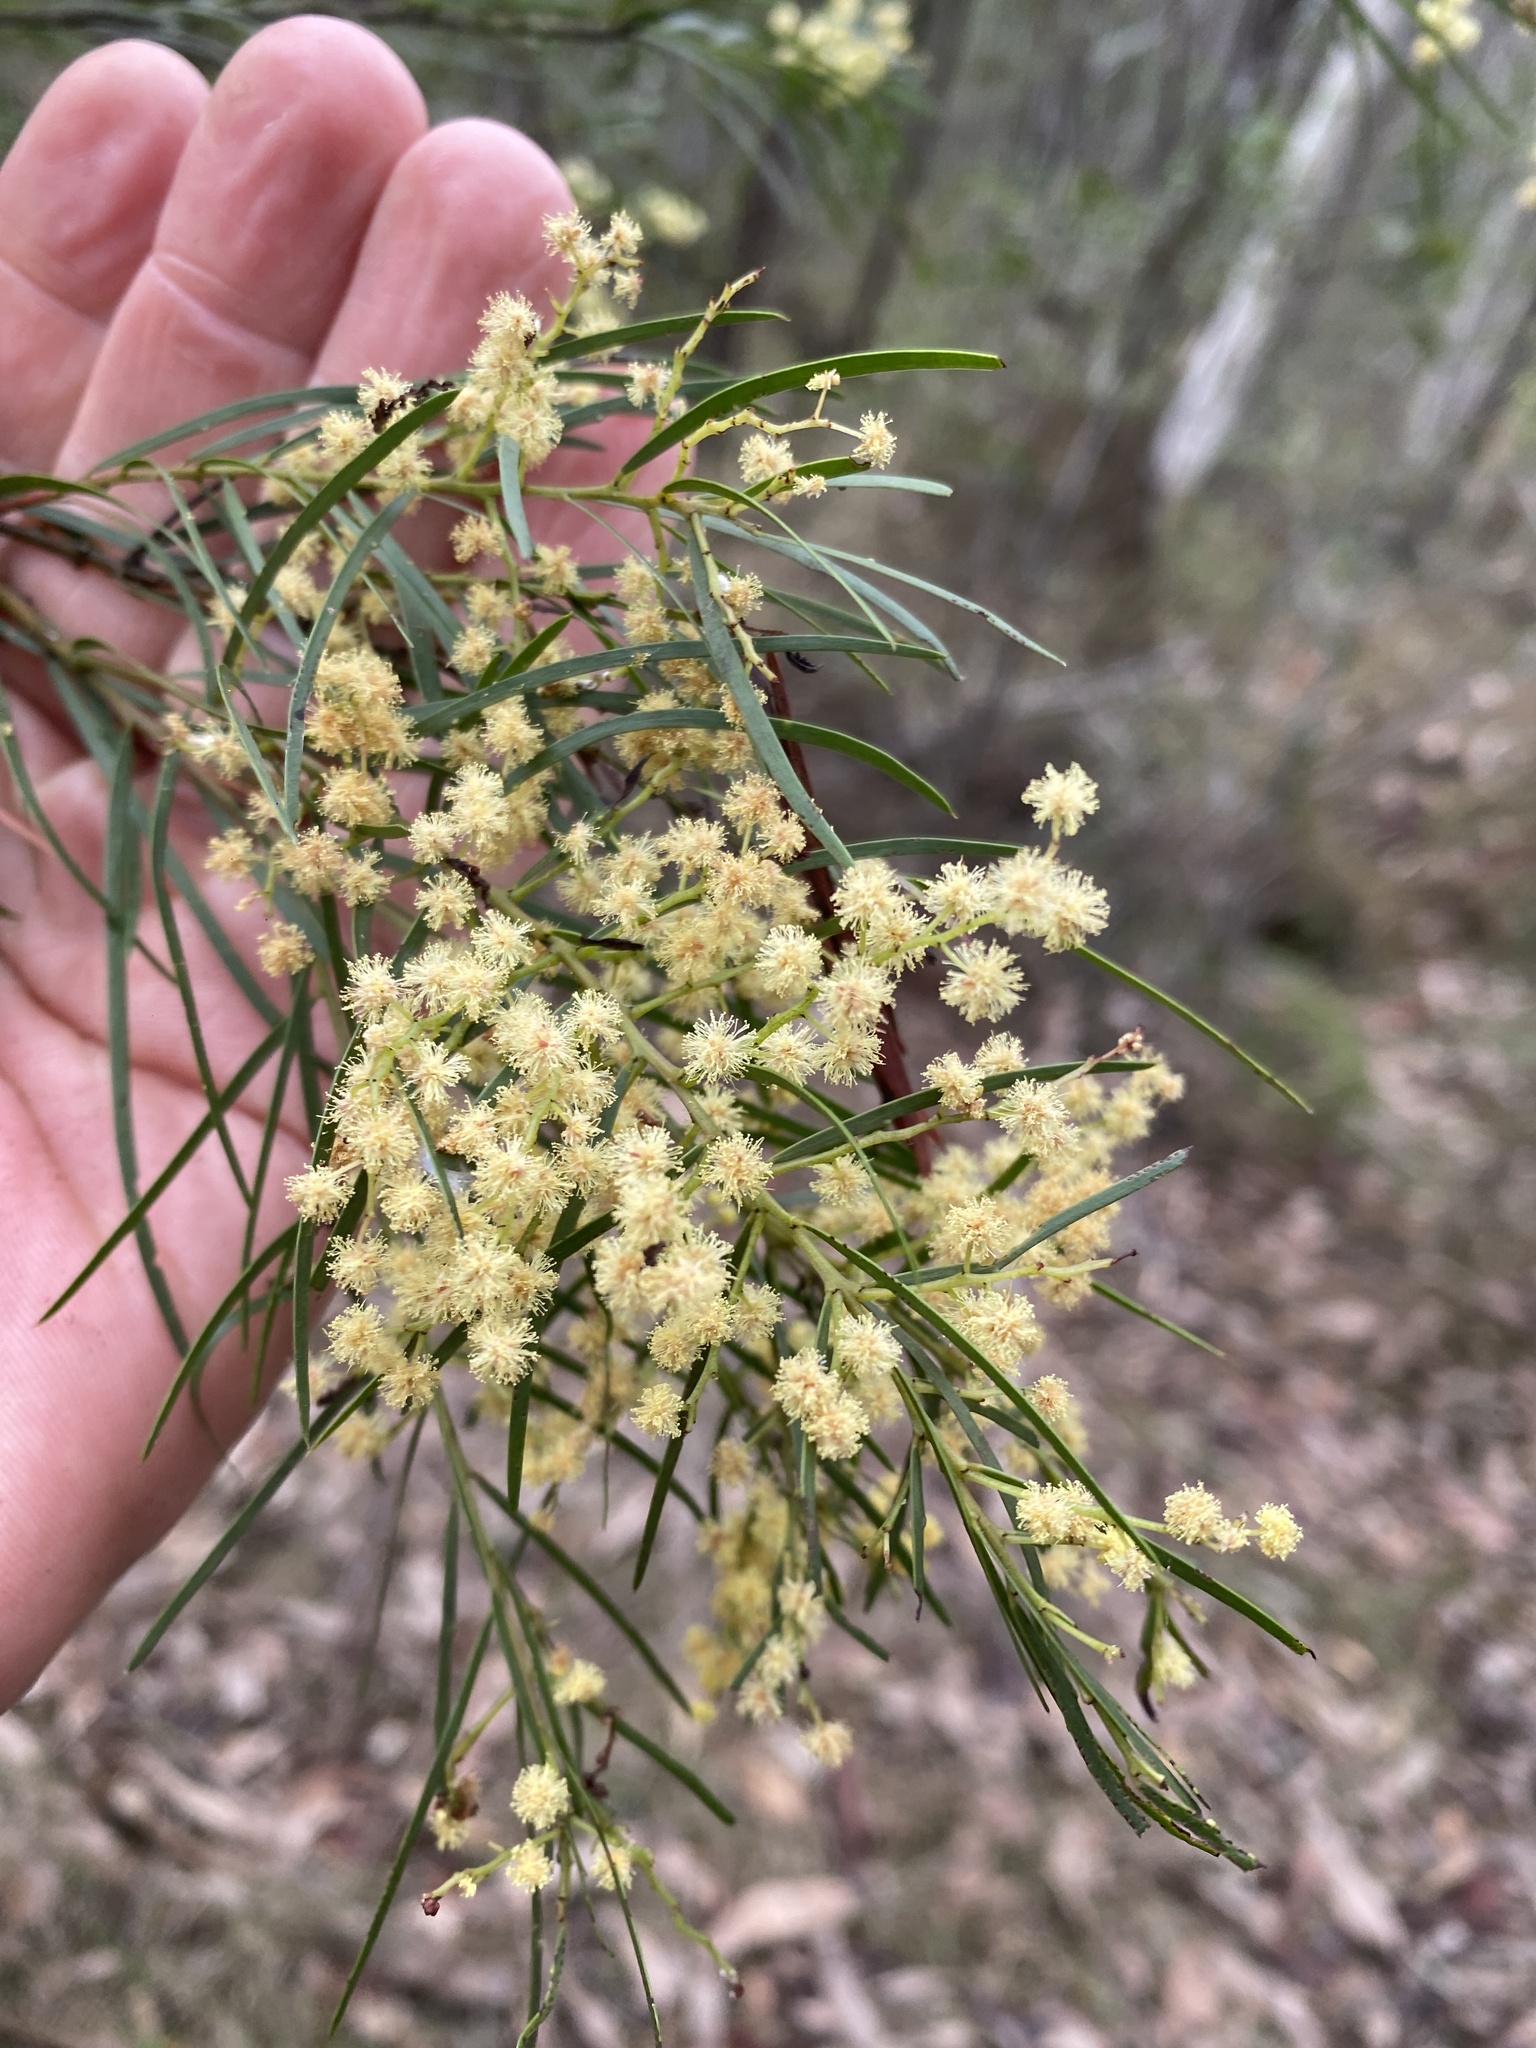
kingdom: Plantae
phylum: Tracheophyta
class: Magnoliopsida
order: Fabales
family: Fabaceae
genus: Acacia
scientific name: Acacia fimbriata
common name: Brisbane golden wattle
